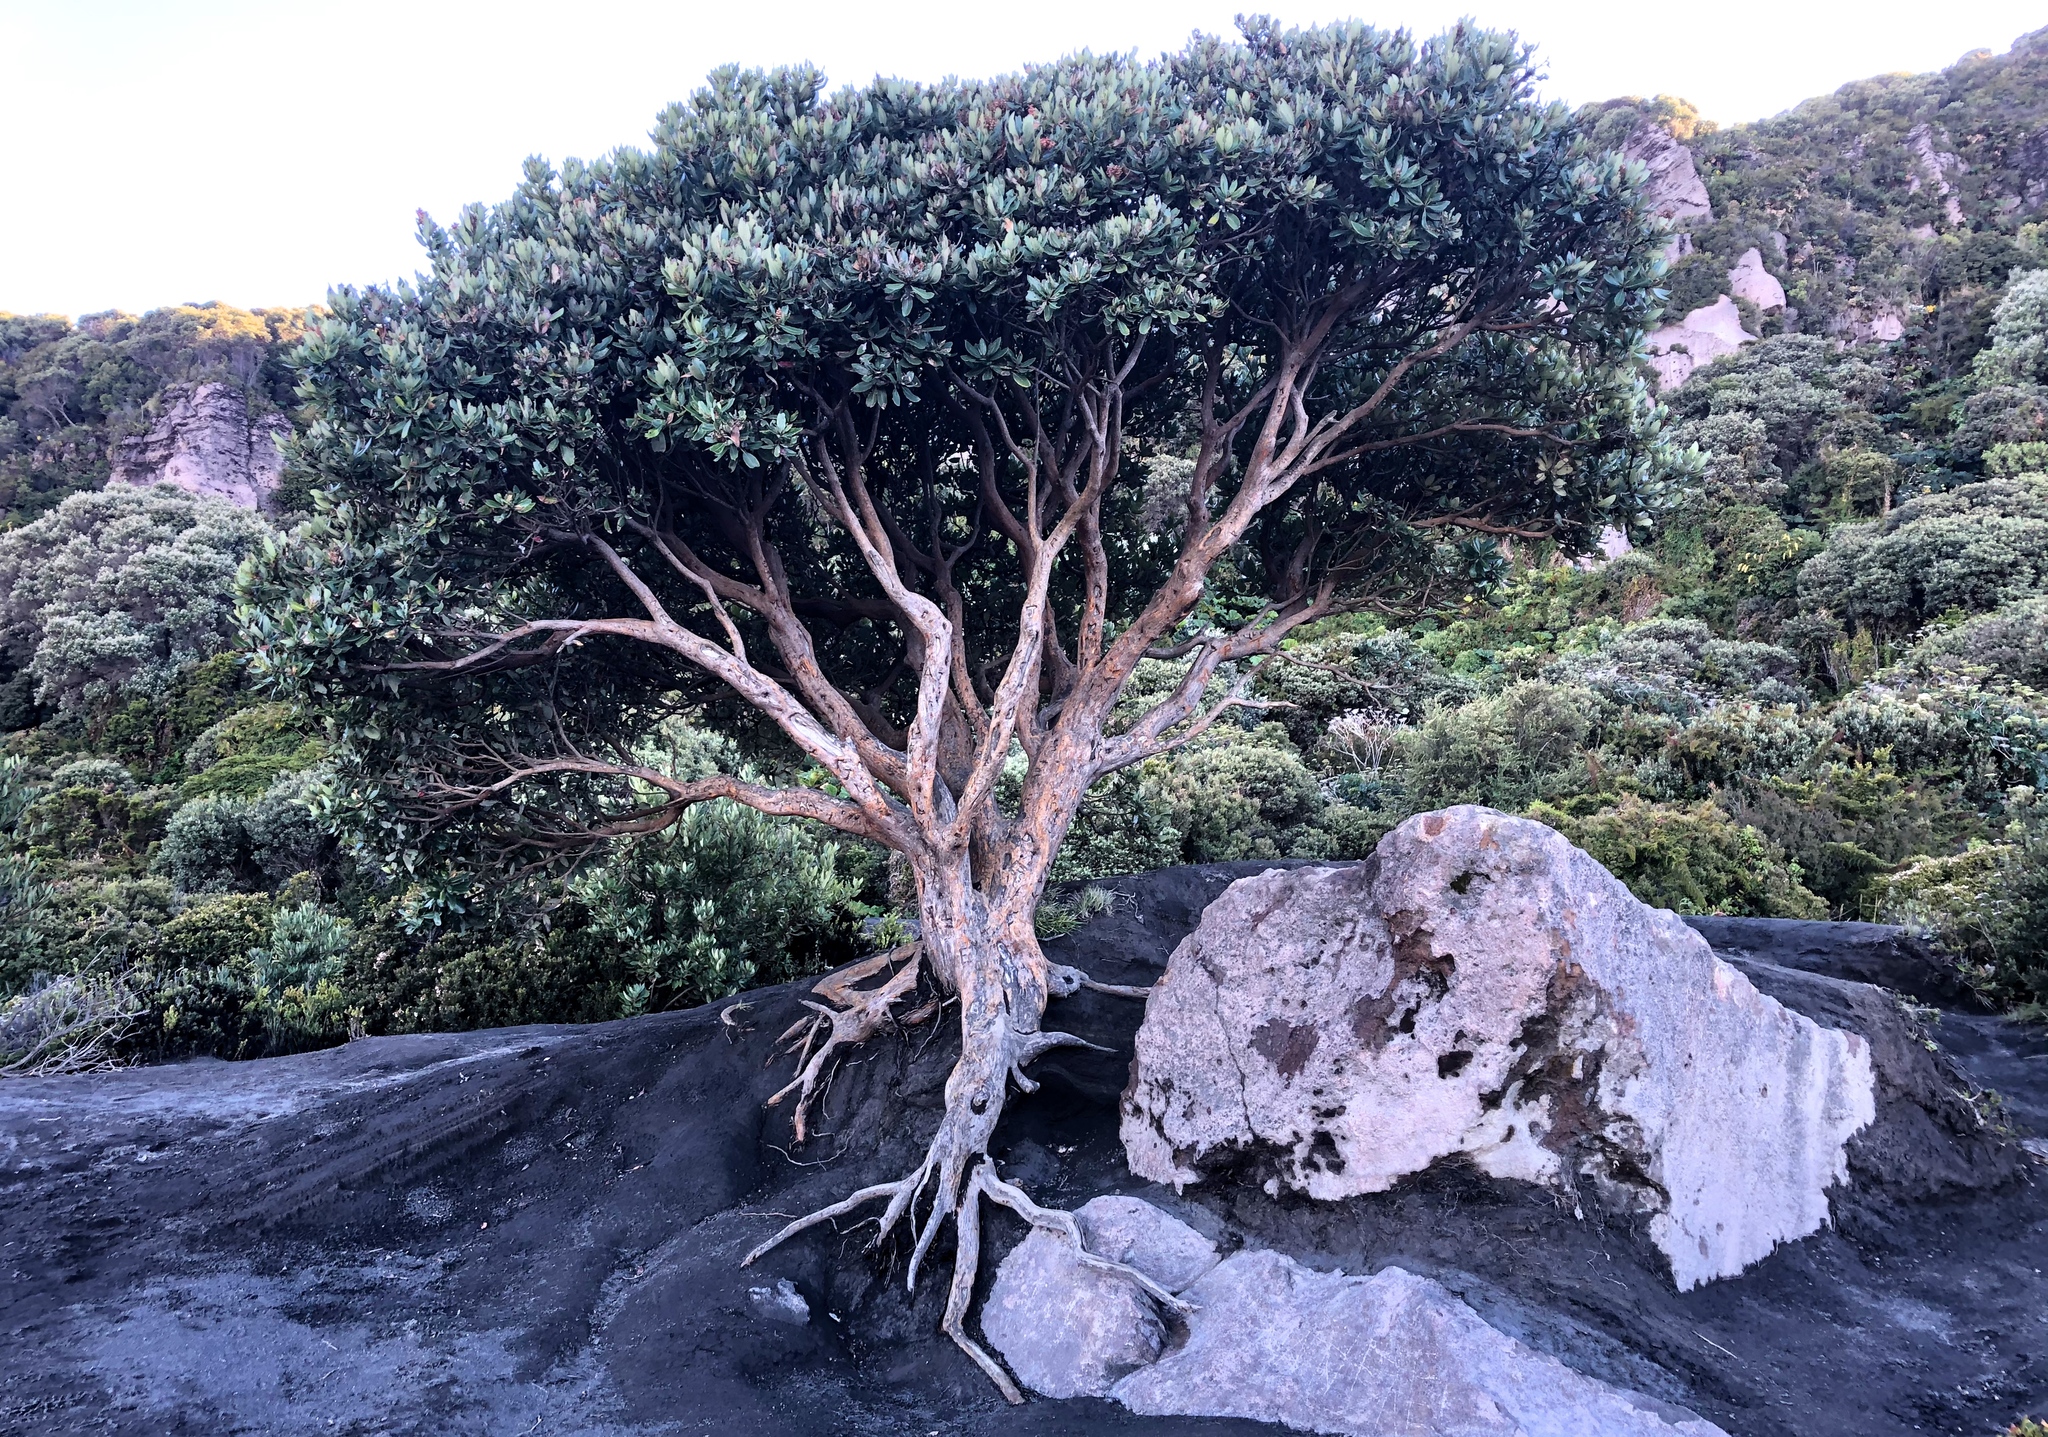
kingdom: Plantae
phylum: Tracheophyta
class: Magnoliopsida
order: Ericales
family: Ericaceae
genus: Comarostaphylis
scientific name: Comarostaphylis arbutoides
